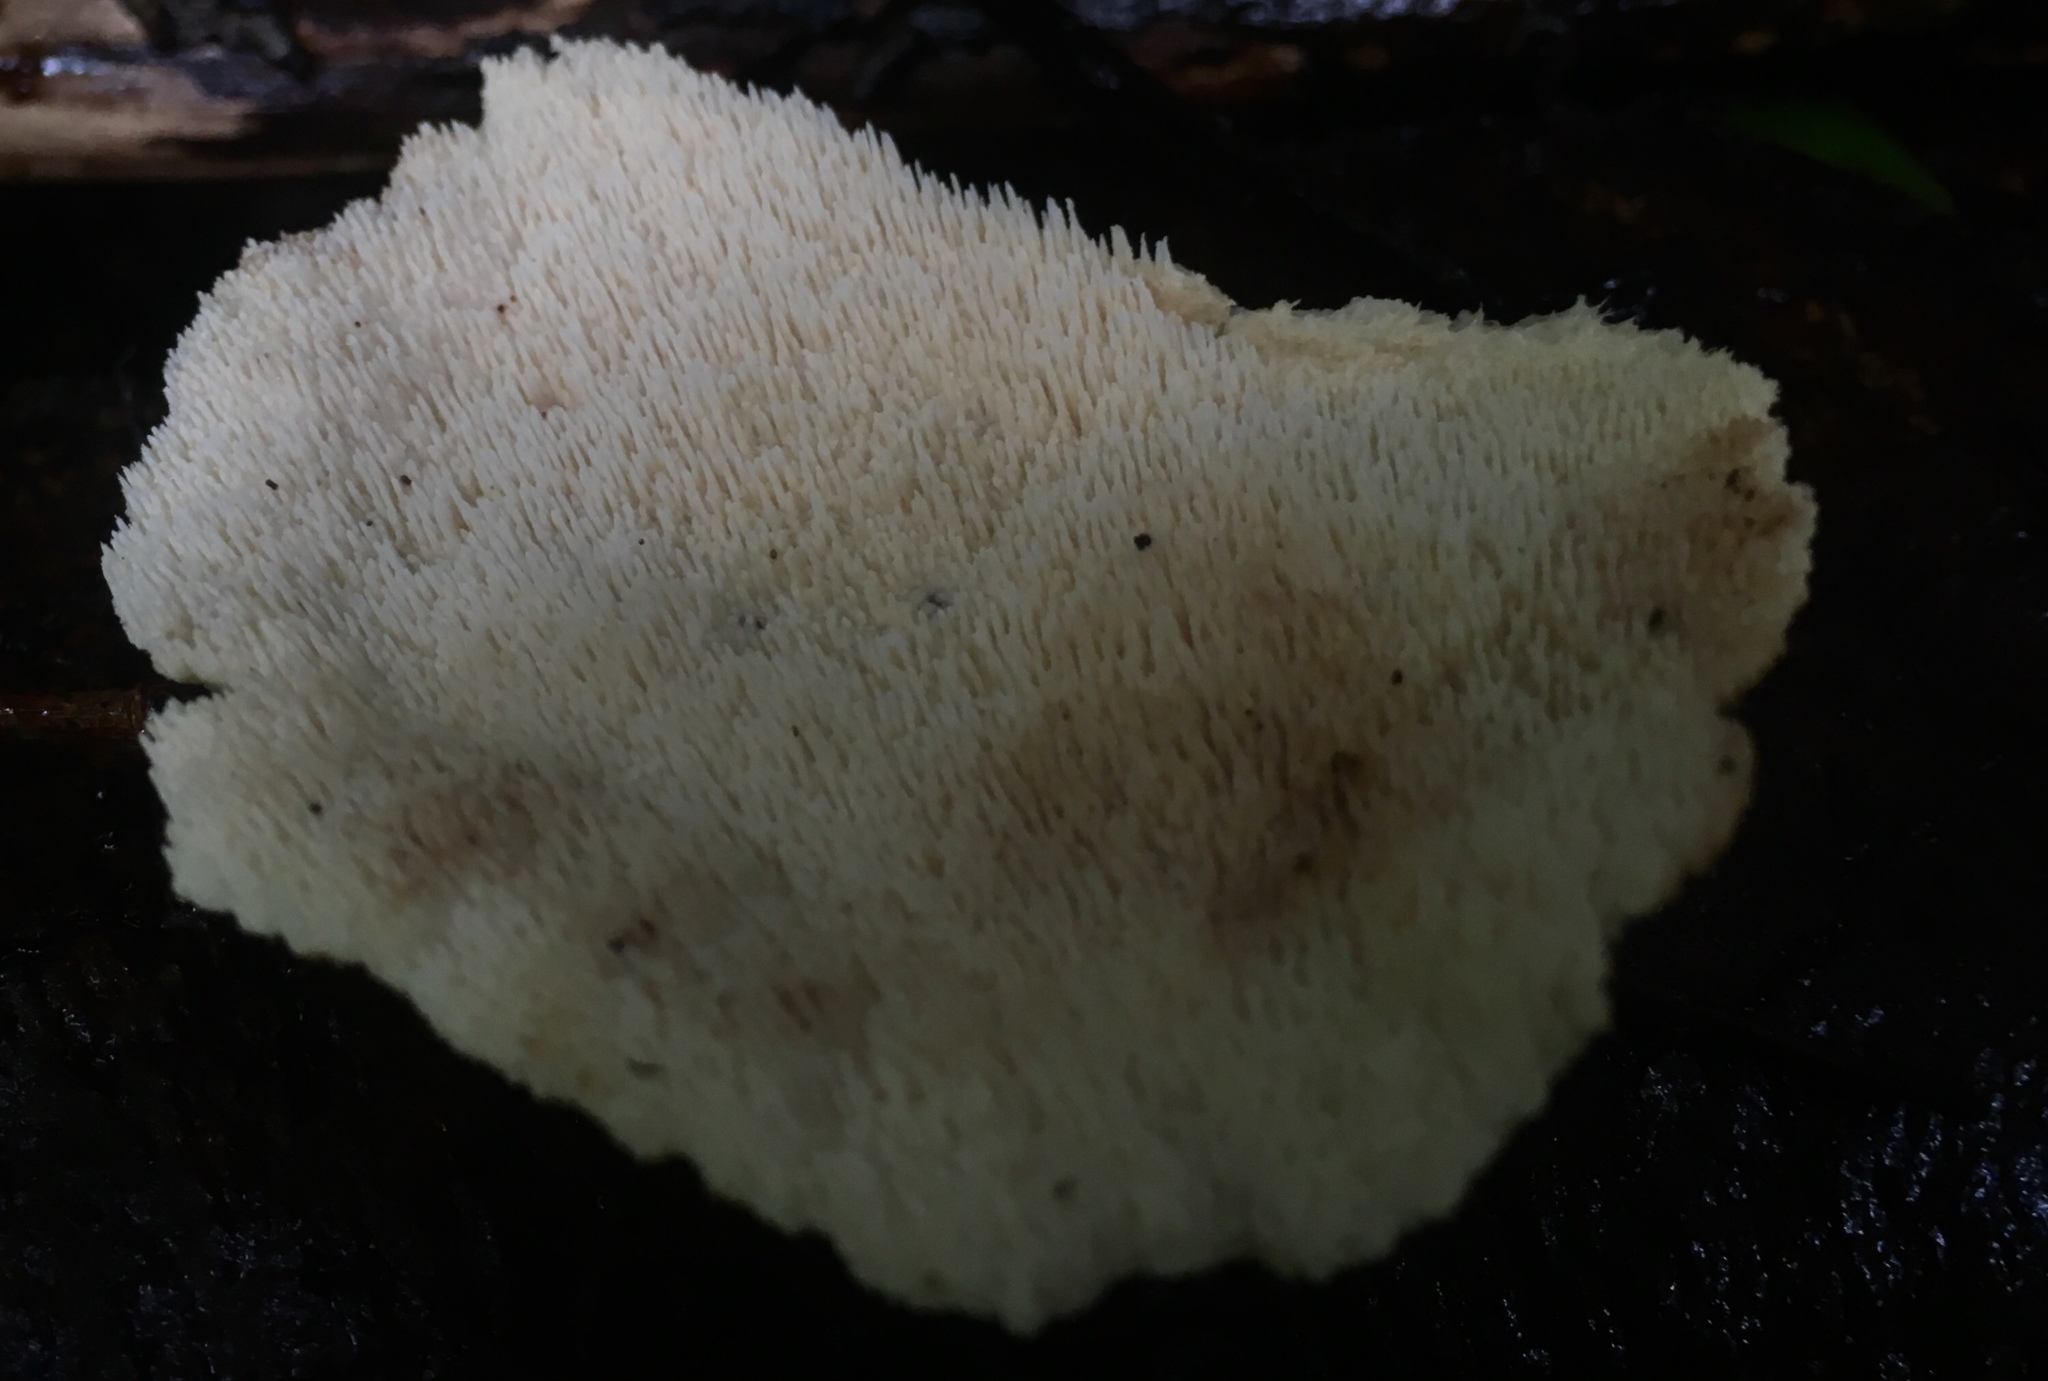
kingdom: Fungi
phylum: Basidiomycota
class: Agaricomycetes
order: Polyporales
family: Meruliaceae
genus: Donkia
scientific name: Donkia pulcherrima
